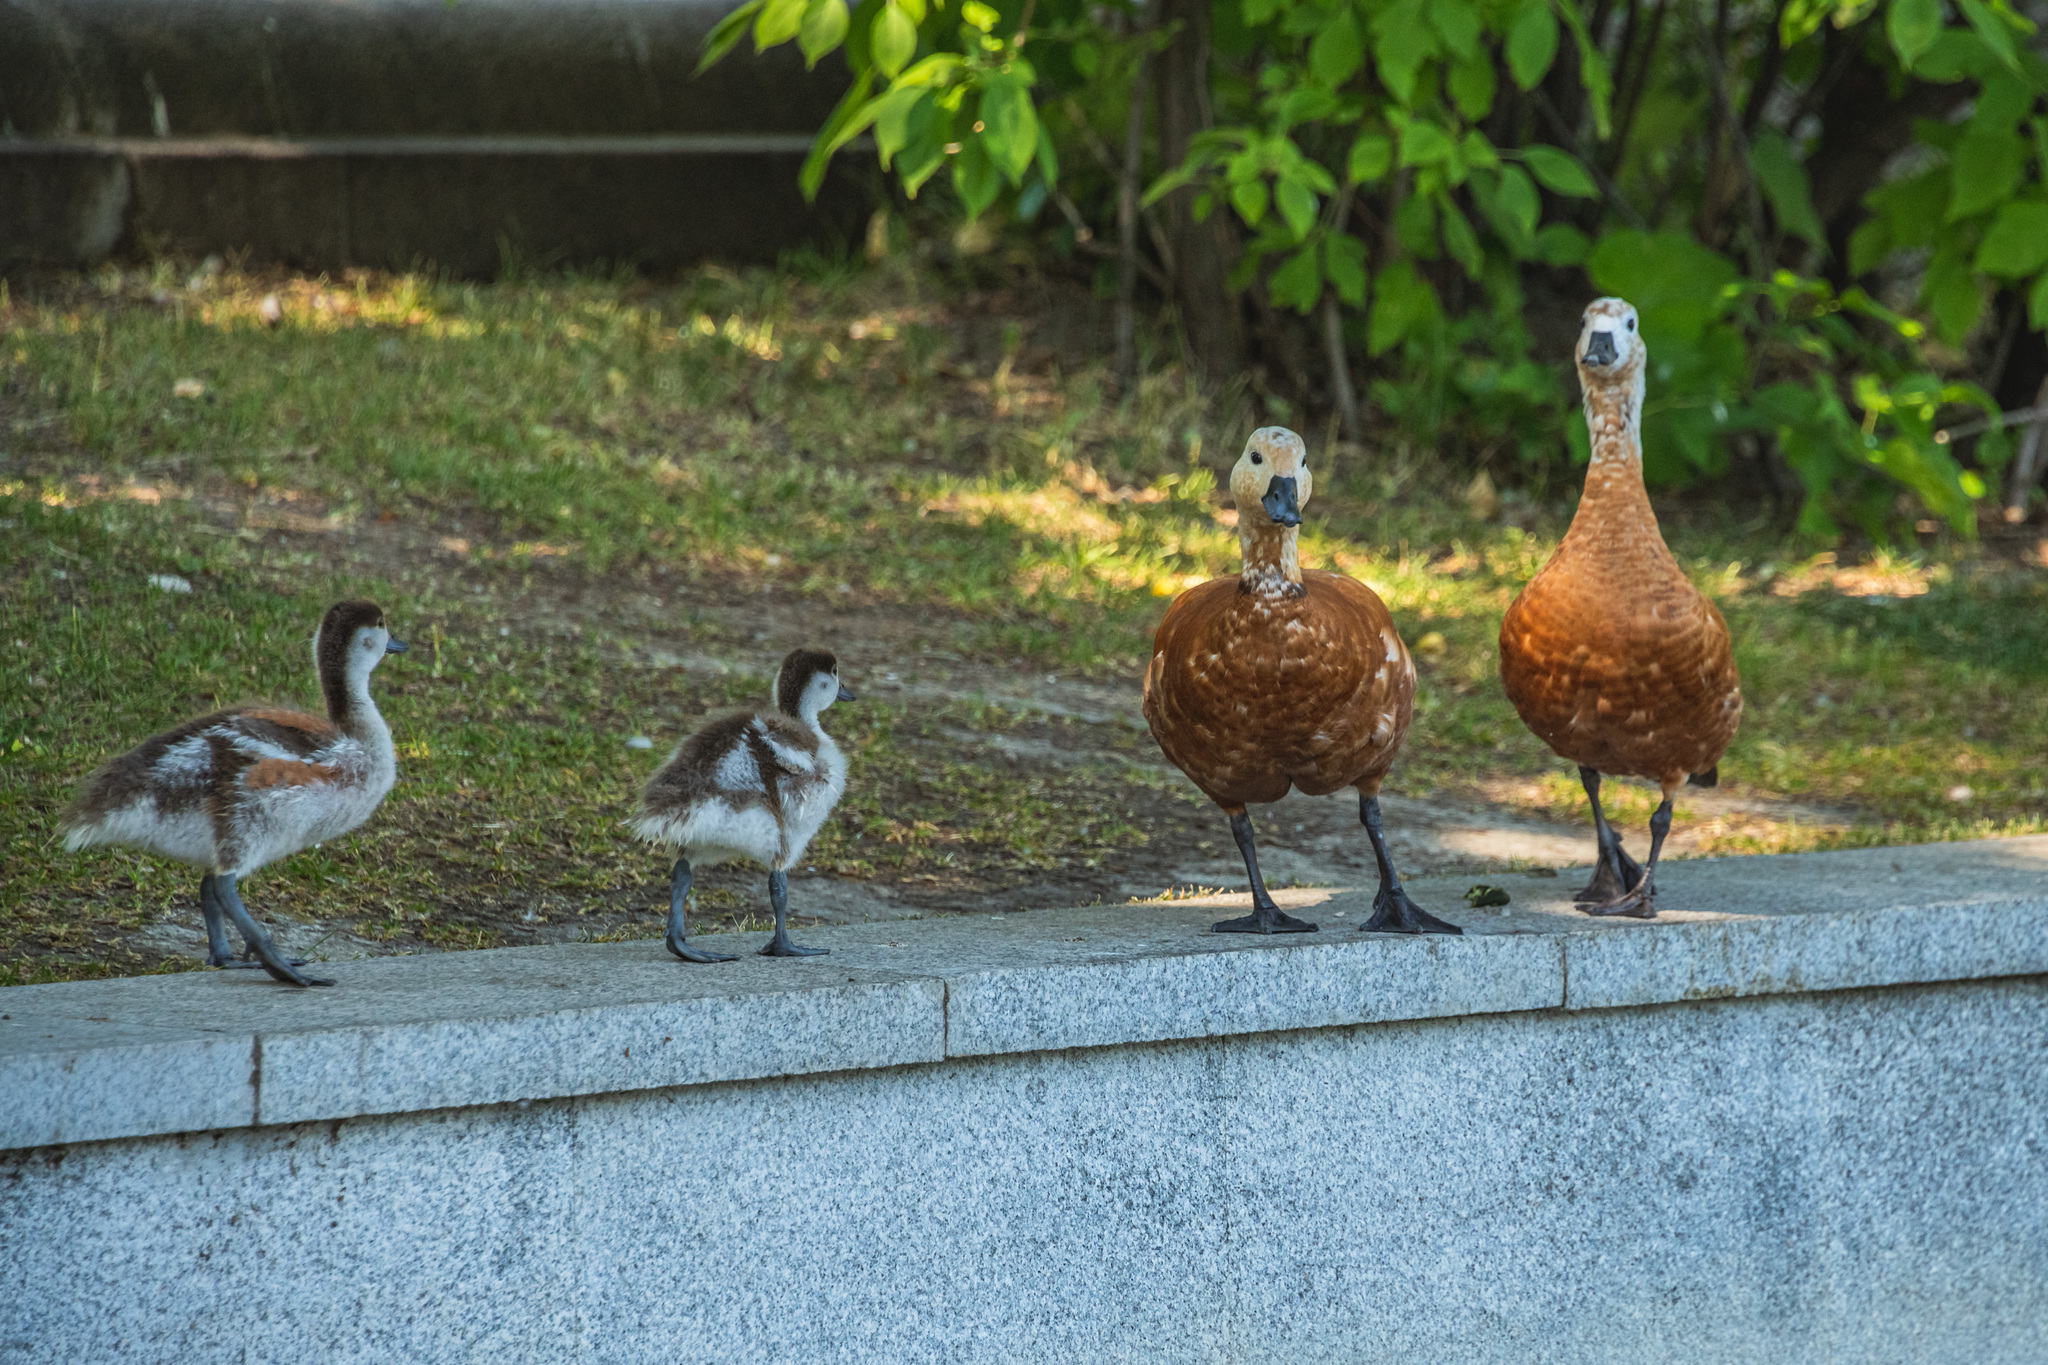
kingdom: Animalia
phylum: Chordata
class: Aves
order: Anseriformes
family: Anatidae
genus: Tadorna
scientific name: Tadorna ferruginea
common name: Ruddy shelduck
